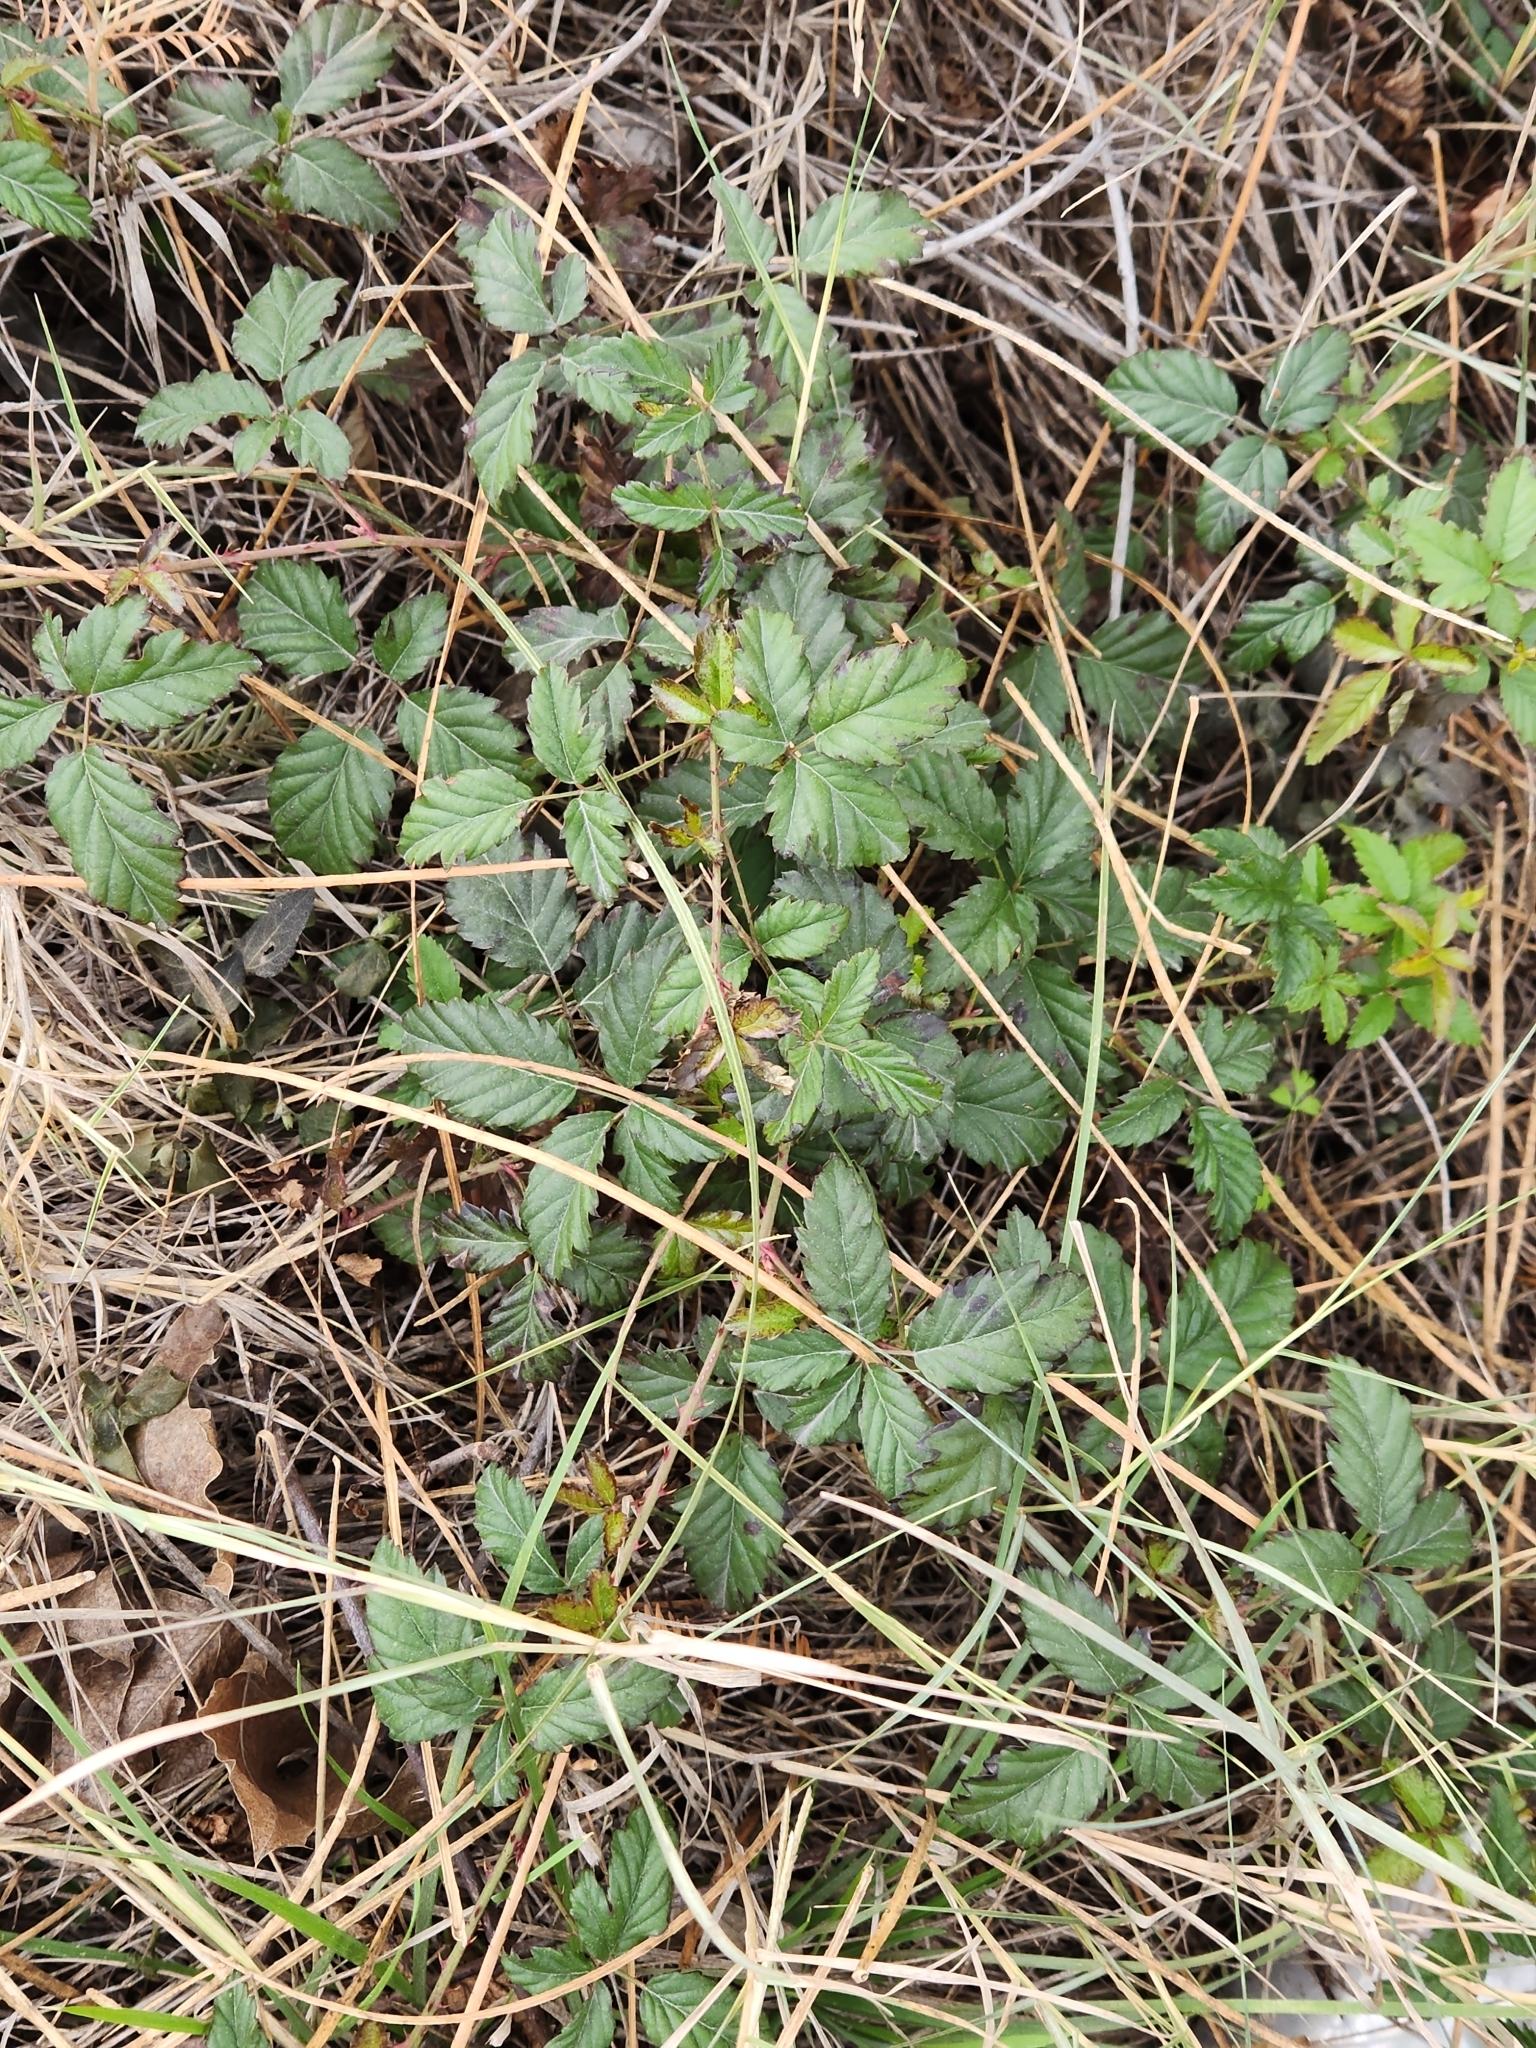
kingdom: Plantae
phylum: Tracheophyta
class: Magnoliopsida
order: Rosales
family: Rosaceae
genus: Rubus
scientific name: Rubus trivialis
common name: Southern dewberry
